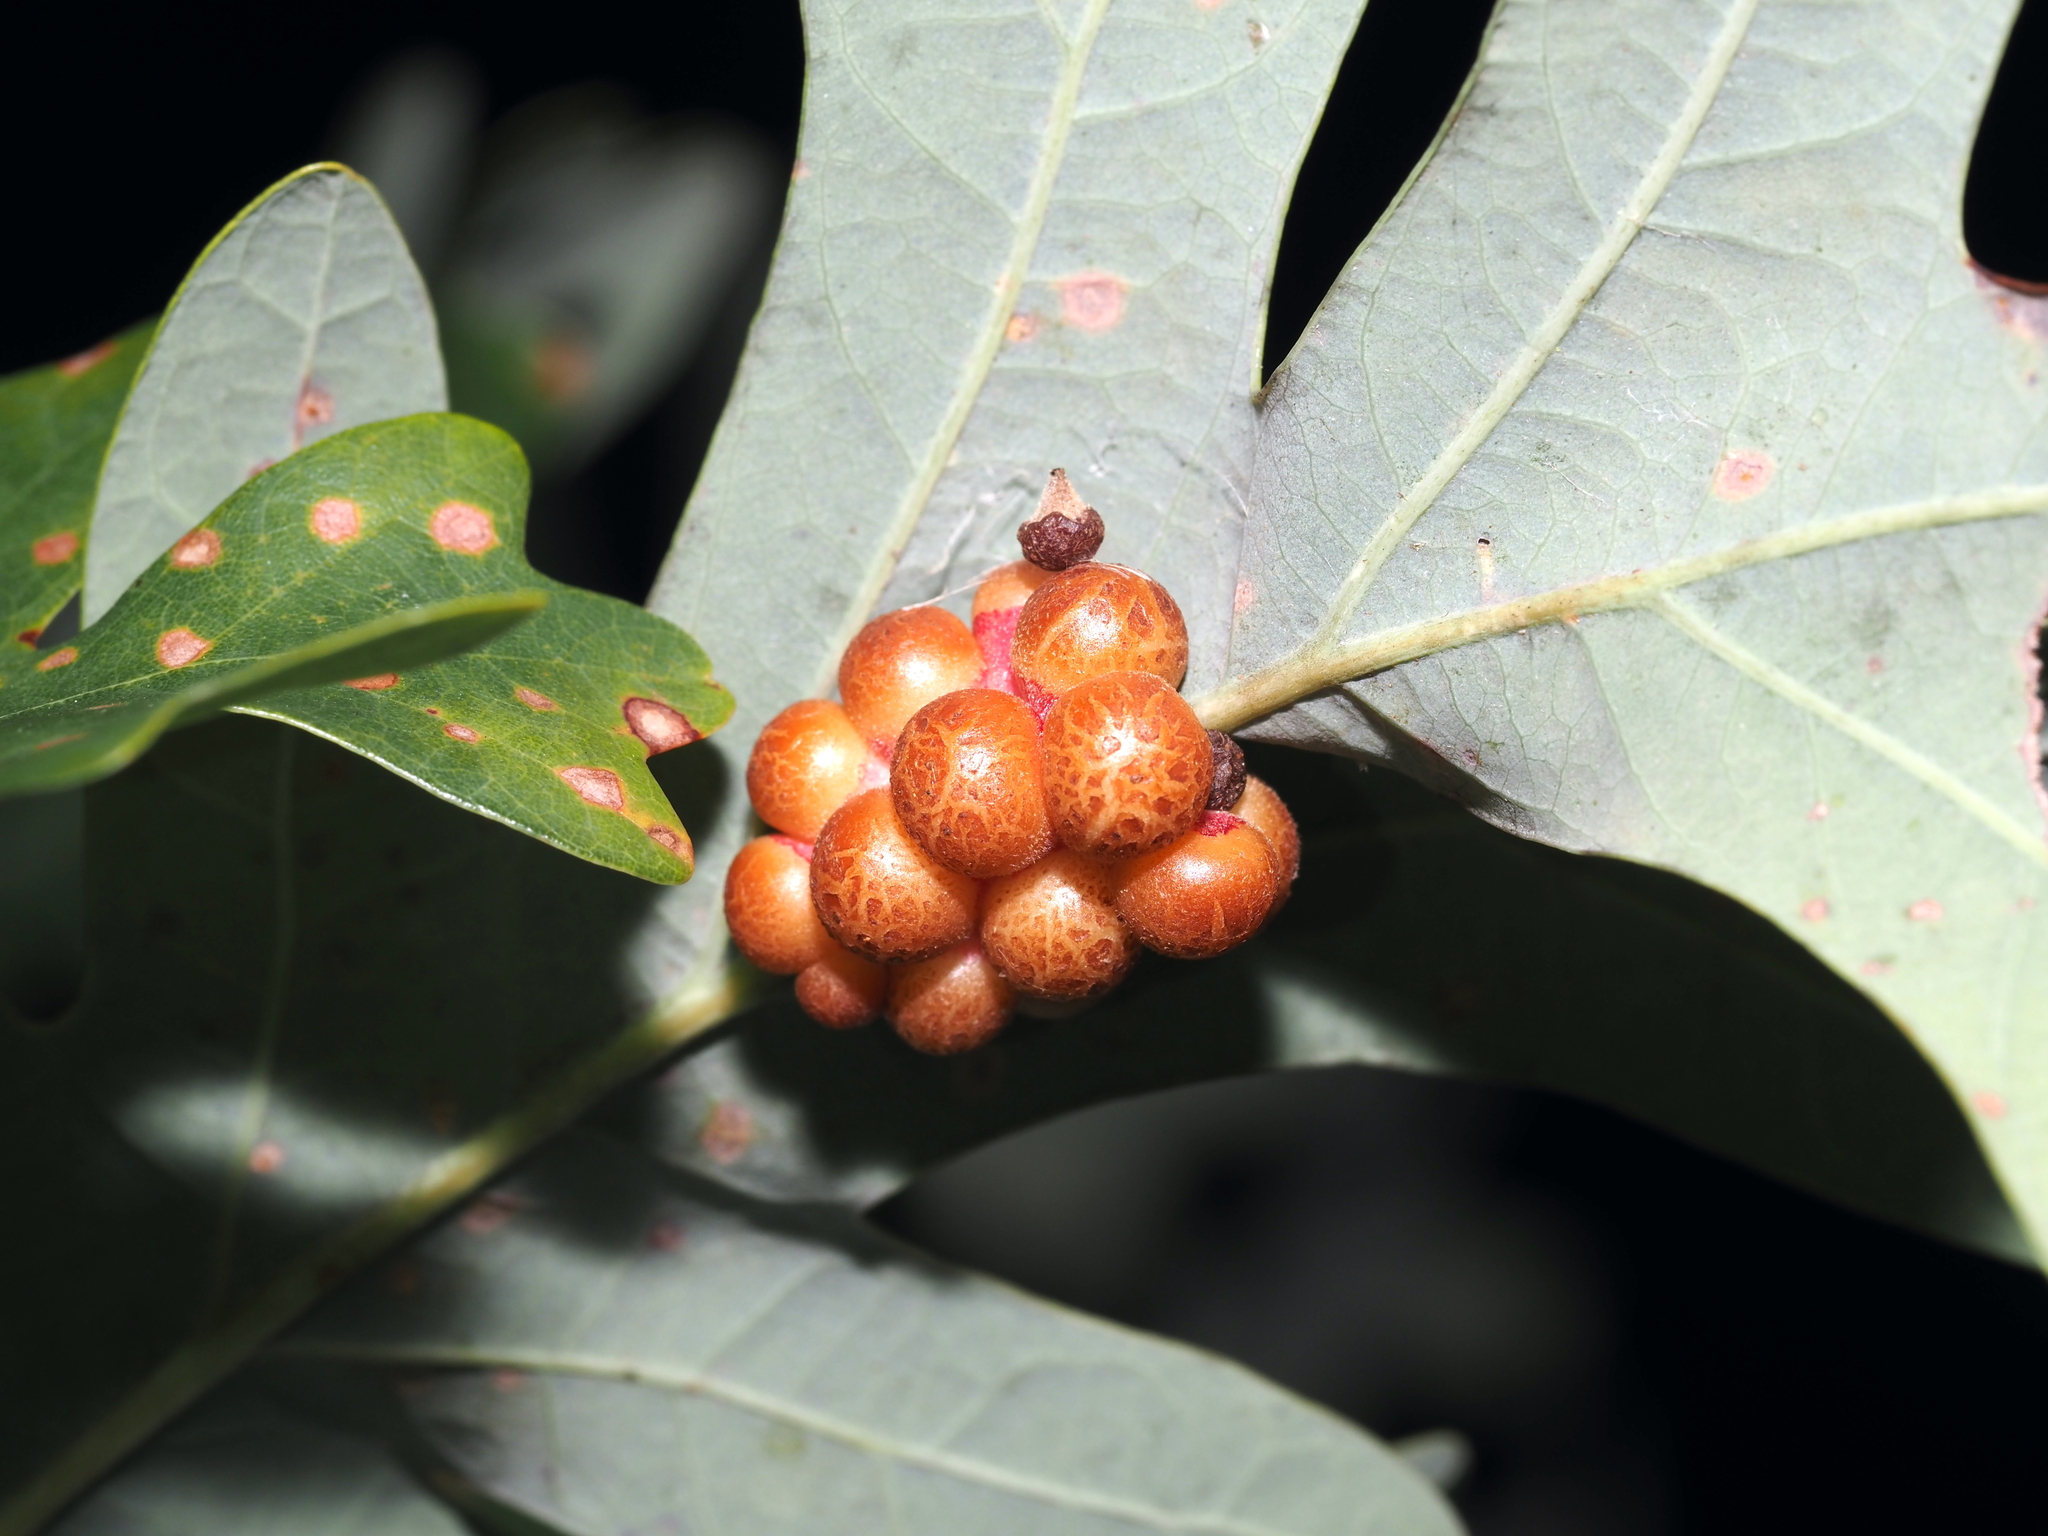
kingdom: Animalia
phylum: Arthropoda
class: Insecta
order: Hymenoptera
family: Cynipidae
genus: Andricus
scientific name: Andricus
